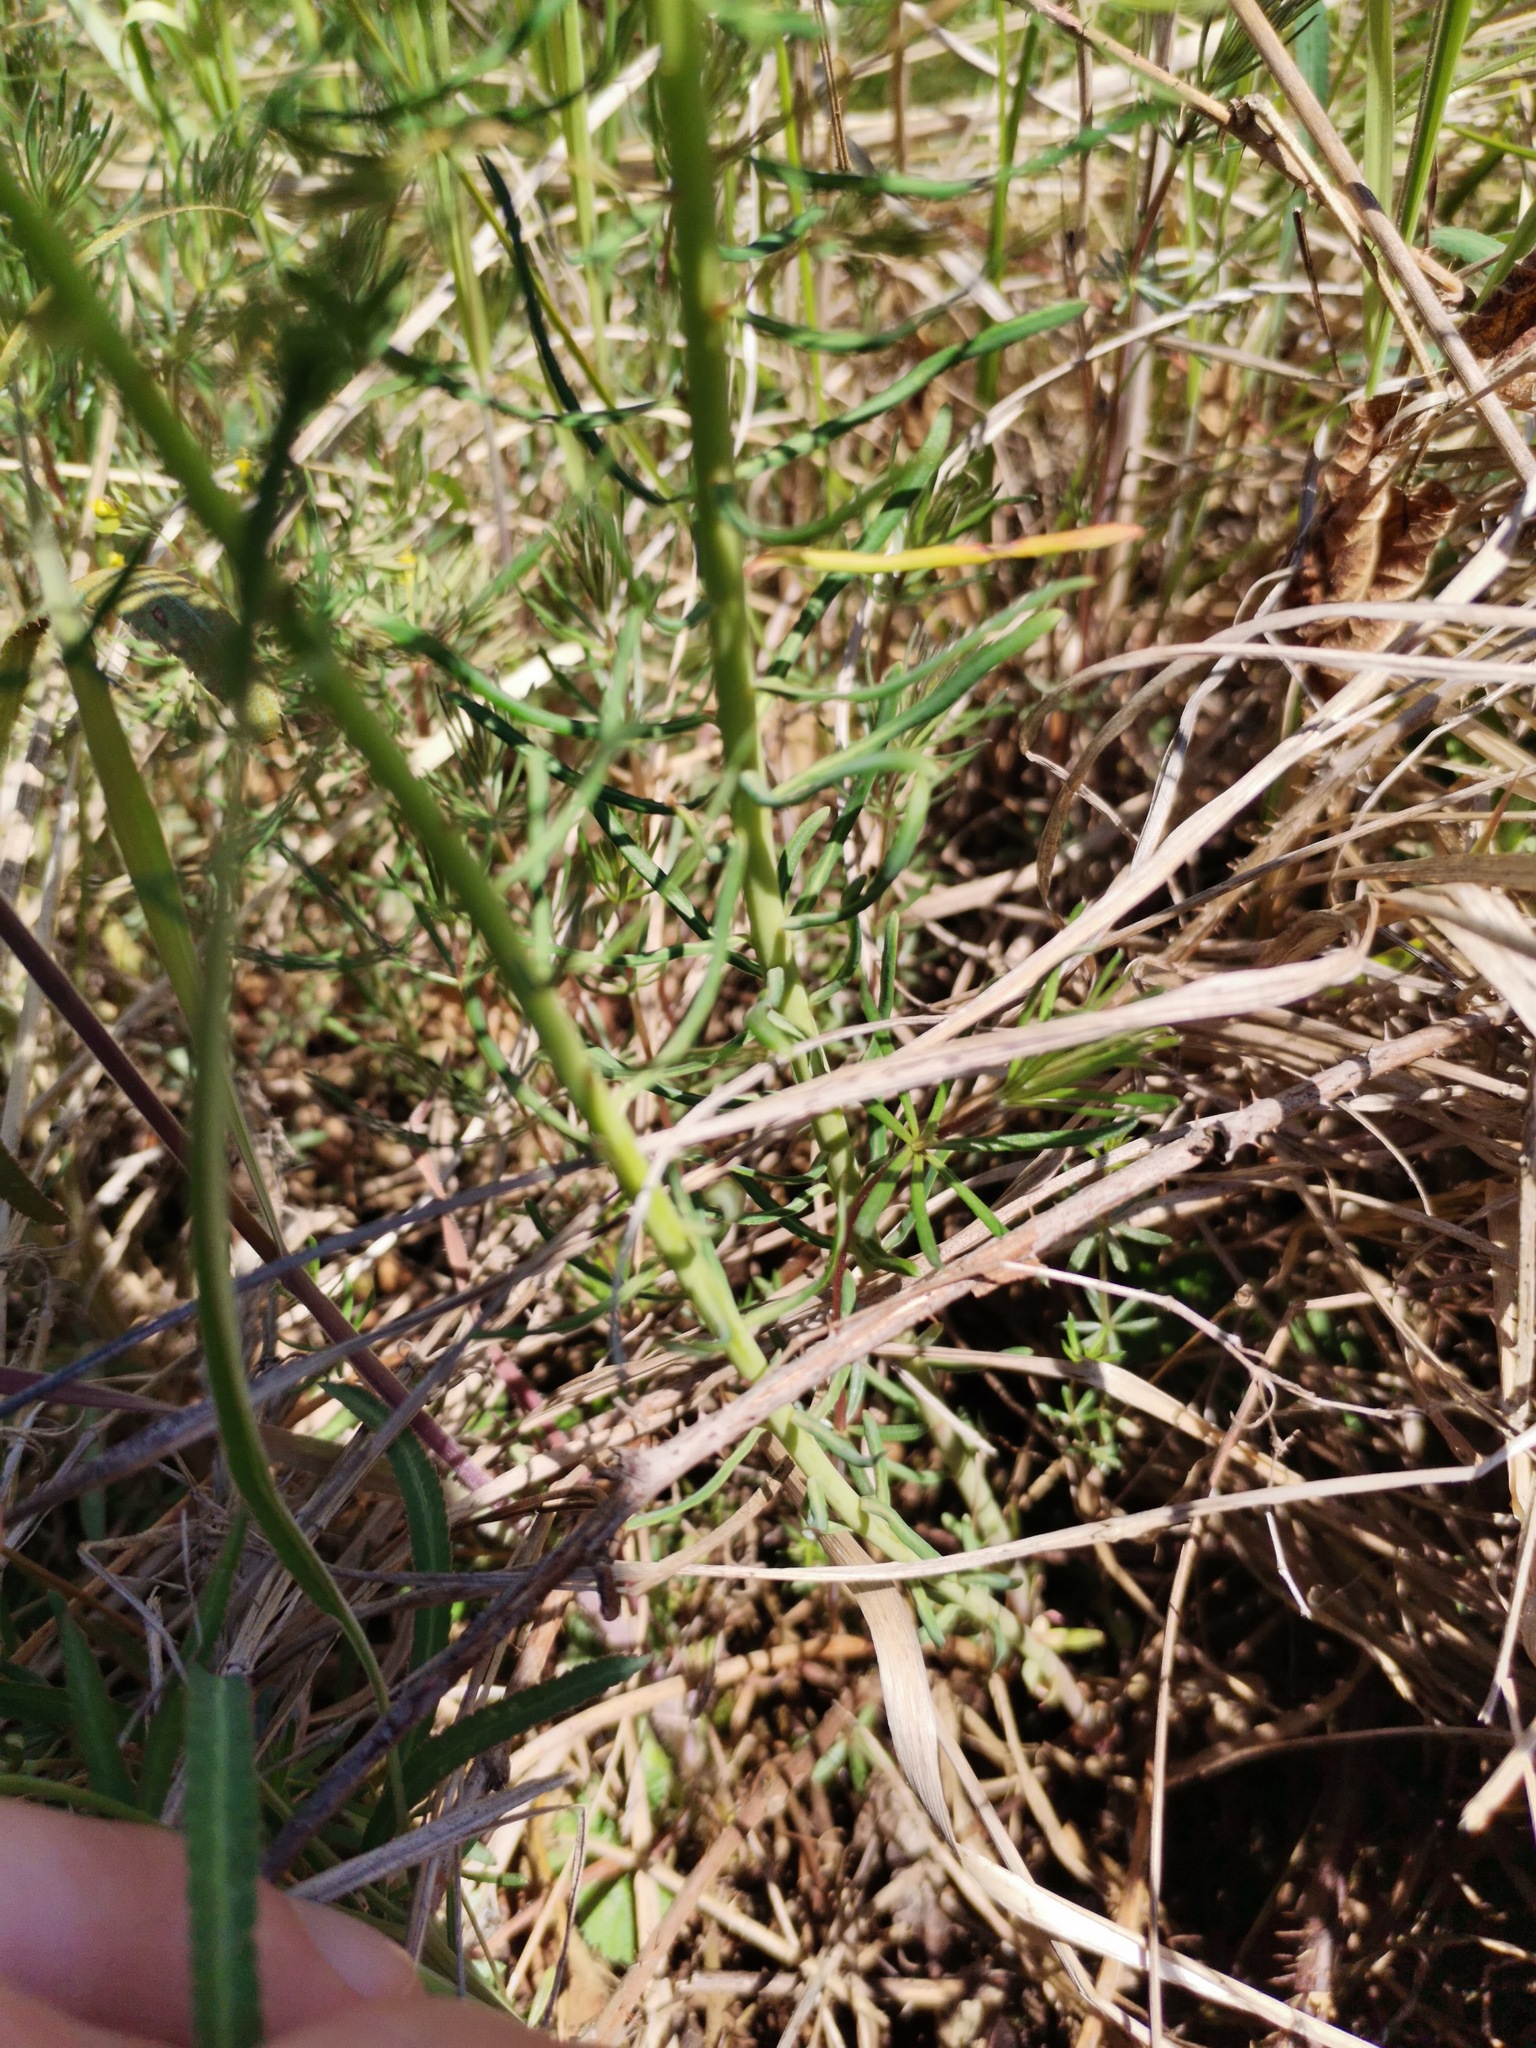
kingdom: Plantae
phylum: Tracheophyta
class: Magnoliopsida
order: Malpighiales
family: Euphorbiaceae
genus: Euphorbia
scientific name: Euphorbia cyparissias
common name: Cypress spurge
